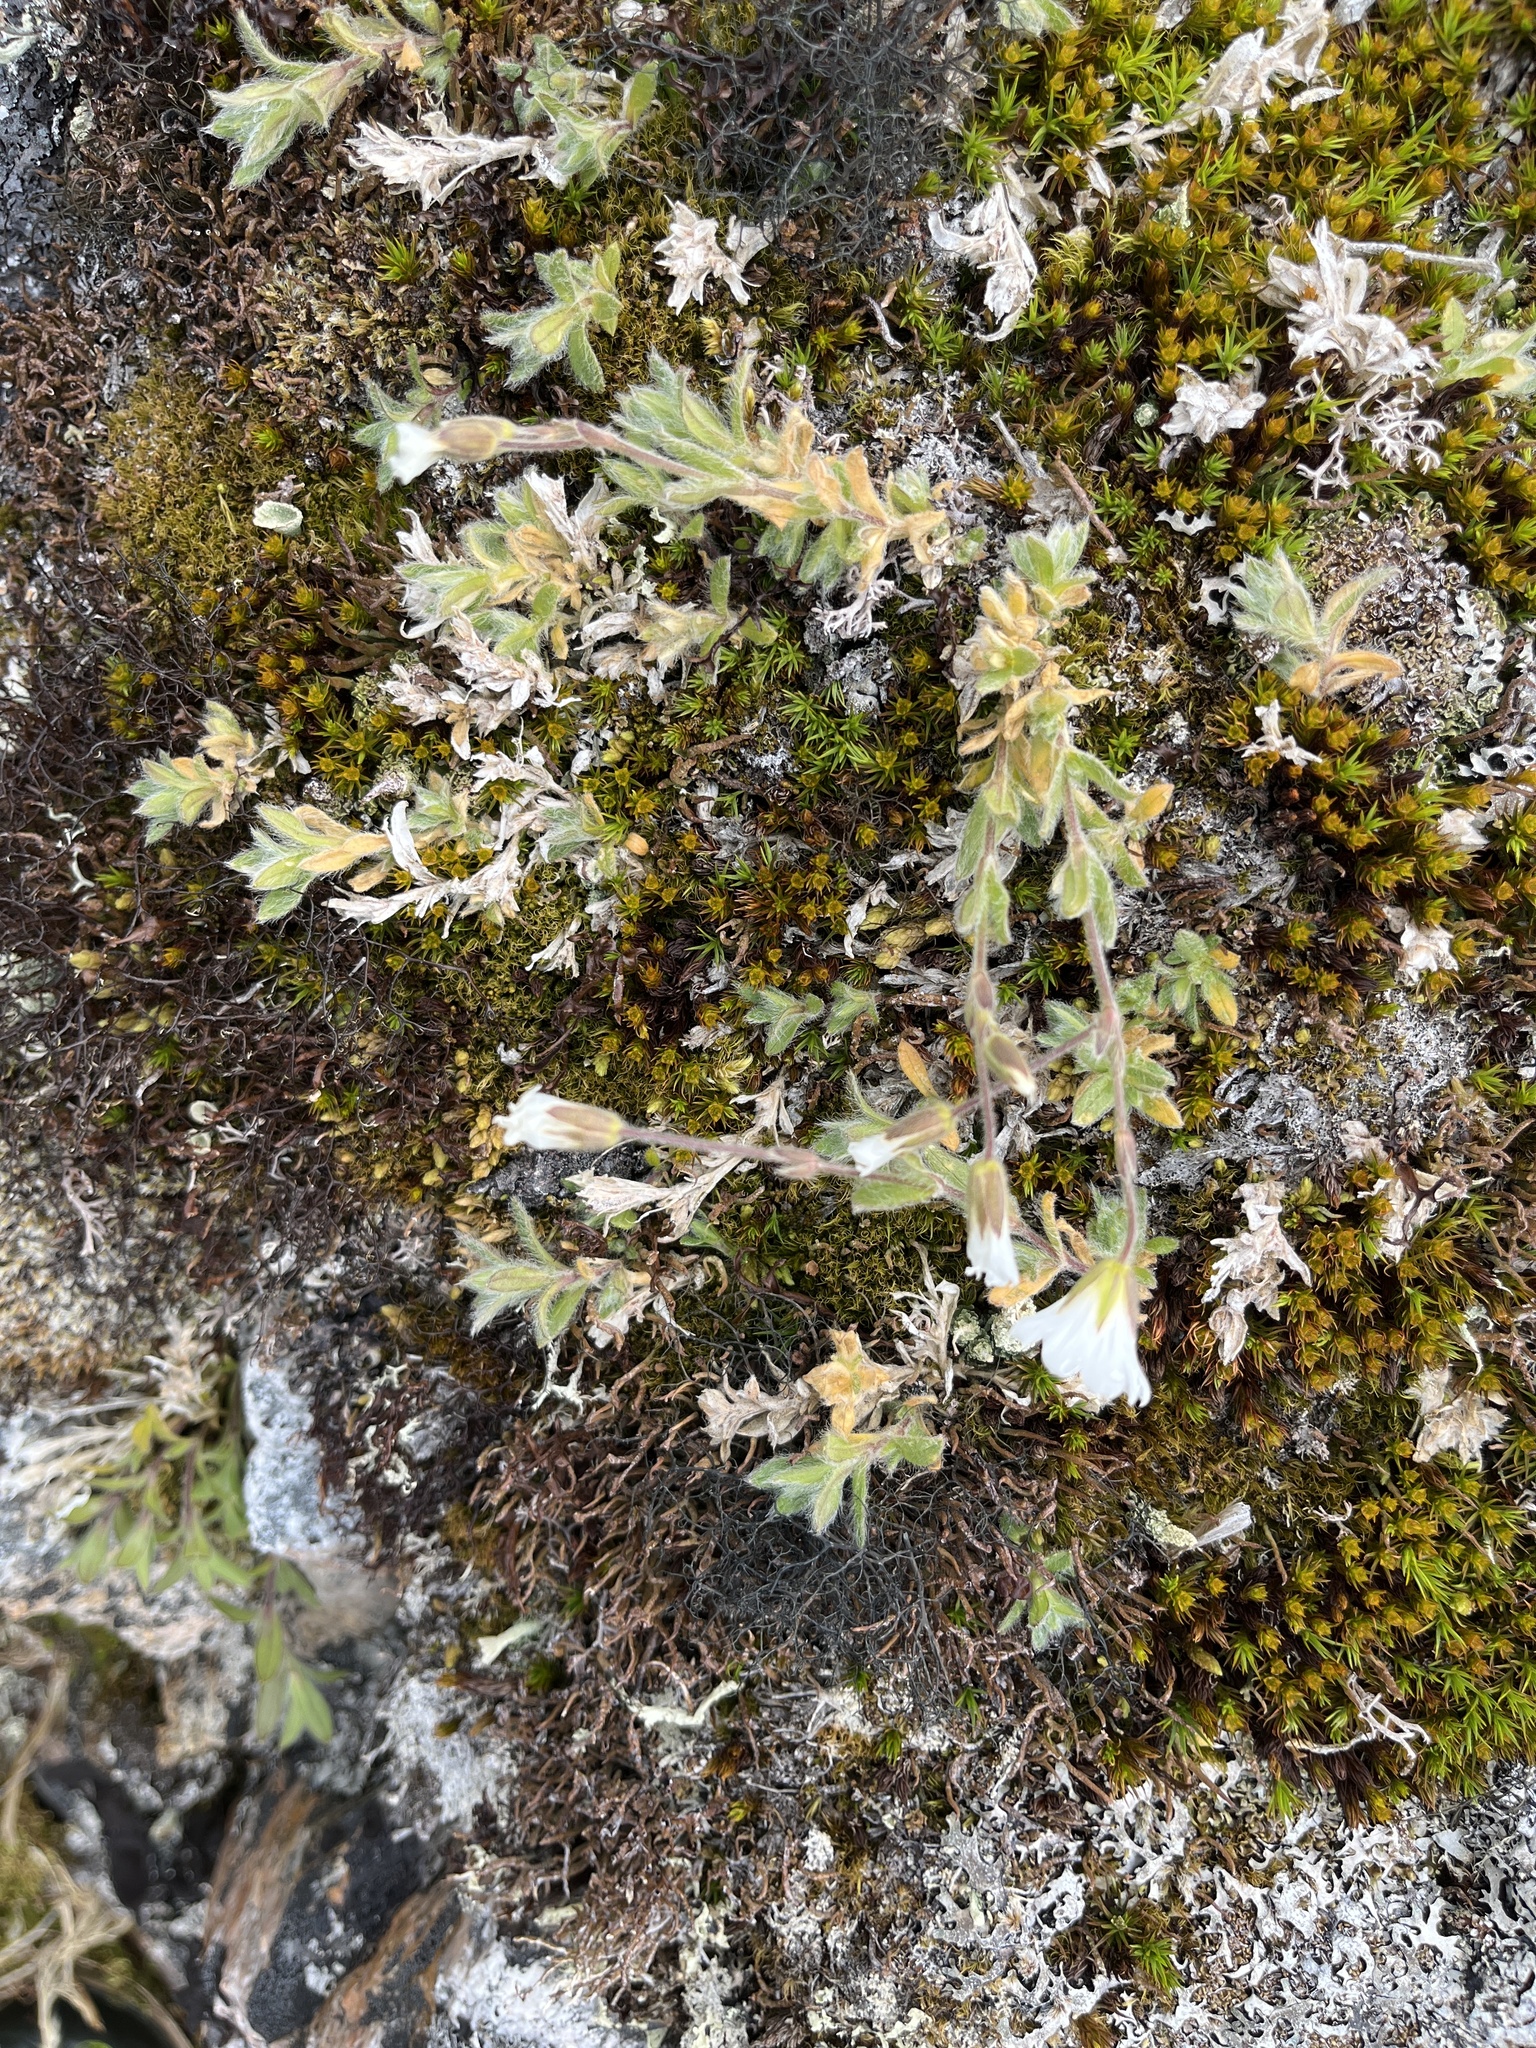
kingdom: Plantae
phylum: Tracheophyta
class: Magnoliopsida
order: Caryophyllales
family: Caryophyllaceae
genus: Cerastium
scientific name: Cerastium alpinum
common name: Alpine mouse-ear
